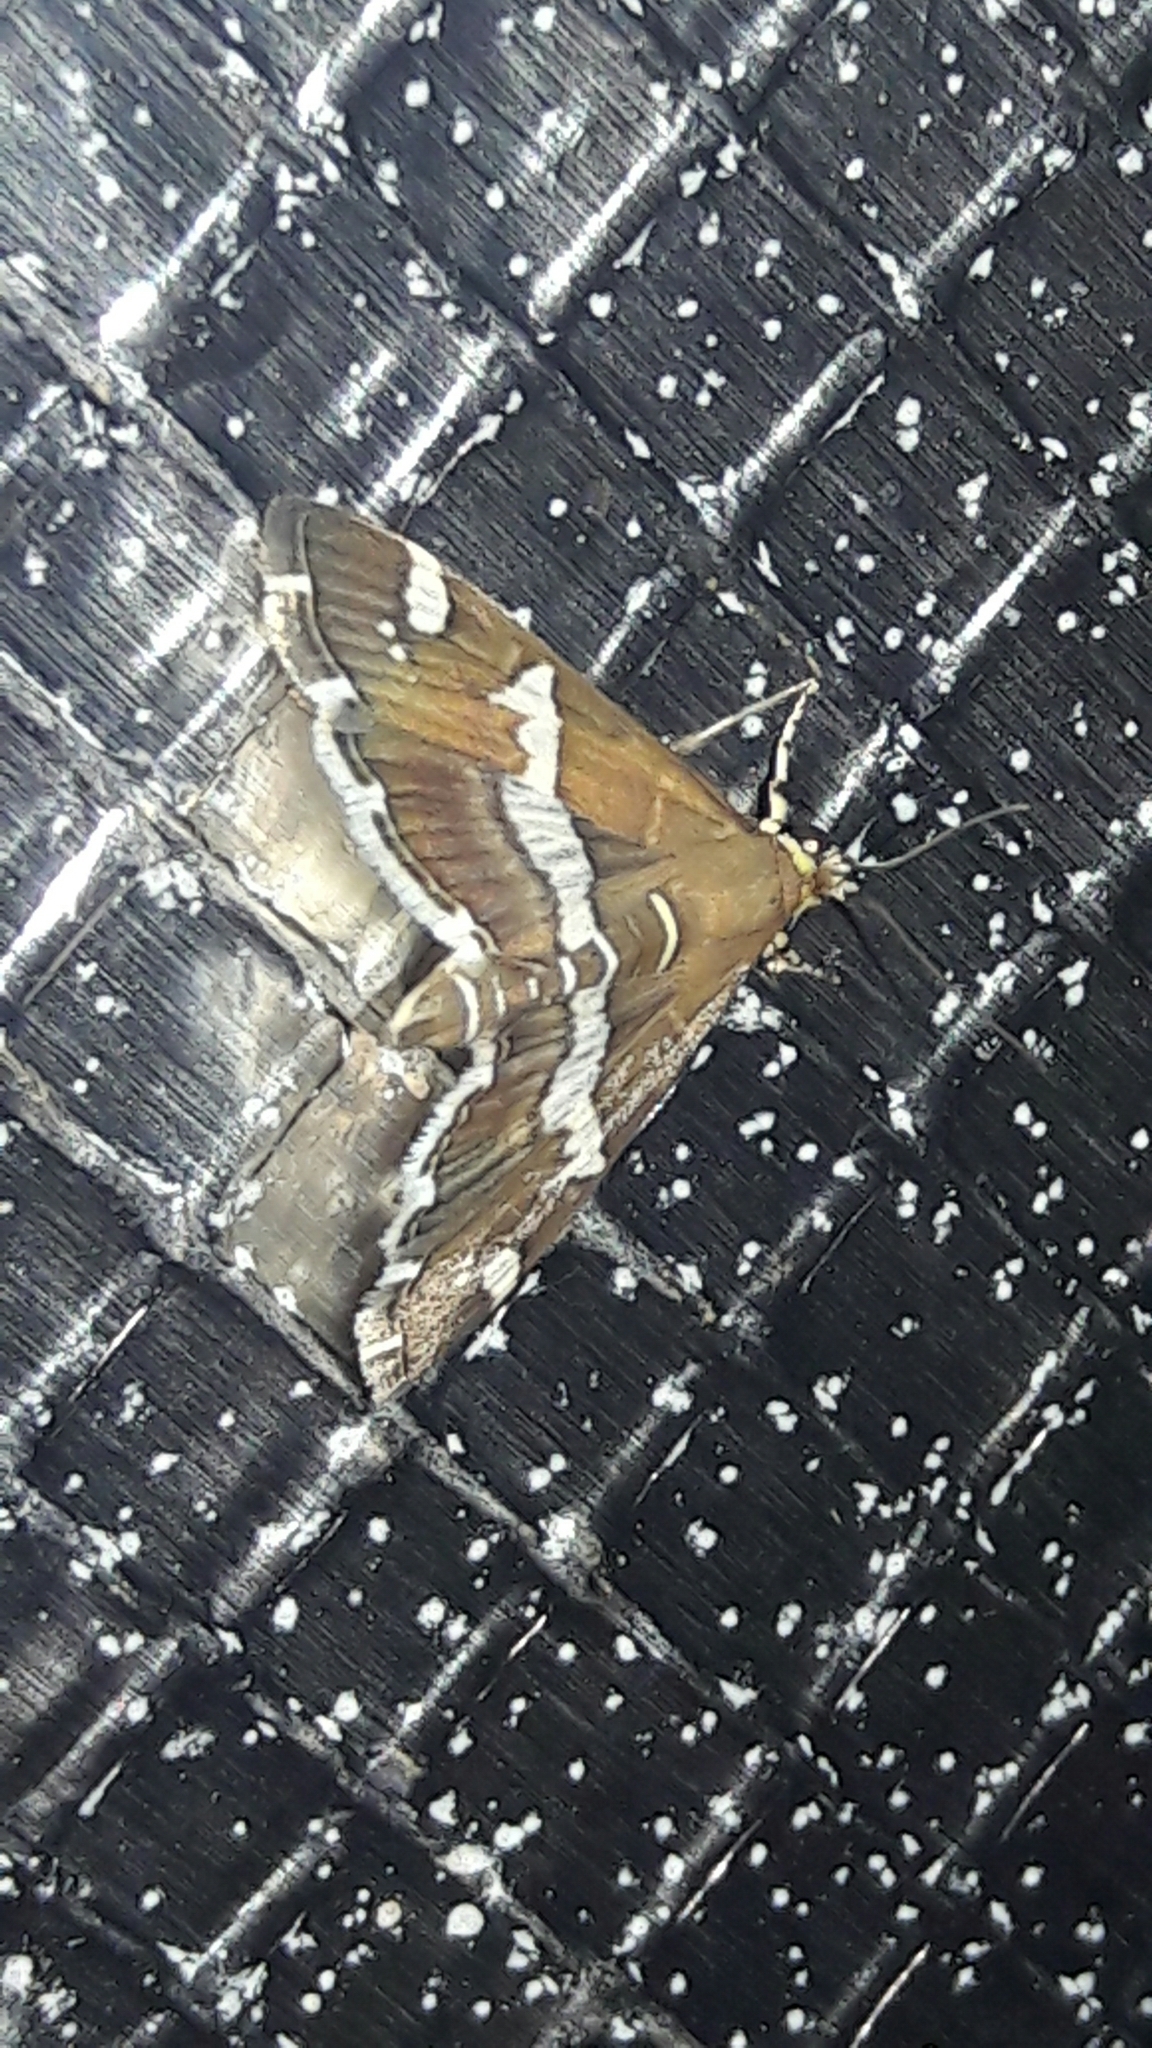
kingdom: Animalia
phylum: Arthropoda
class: Insecta
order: Lepidoptera
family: Crambidae
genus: Spoladea
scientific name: Spoladea recurvalis
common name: Beet webworm moth
